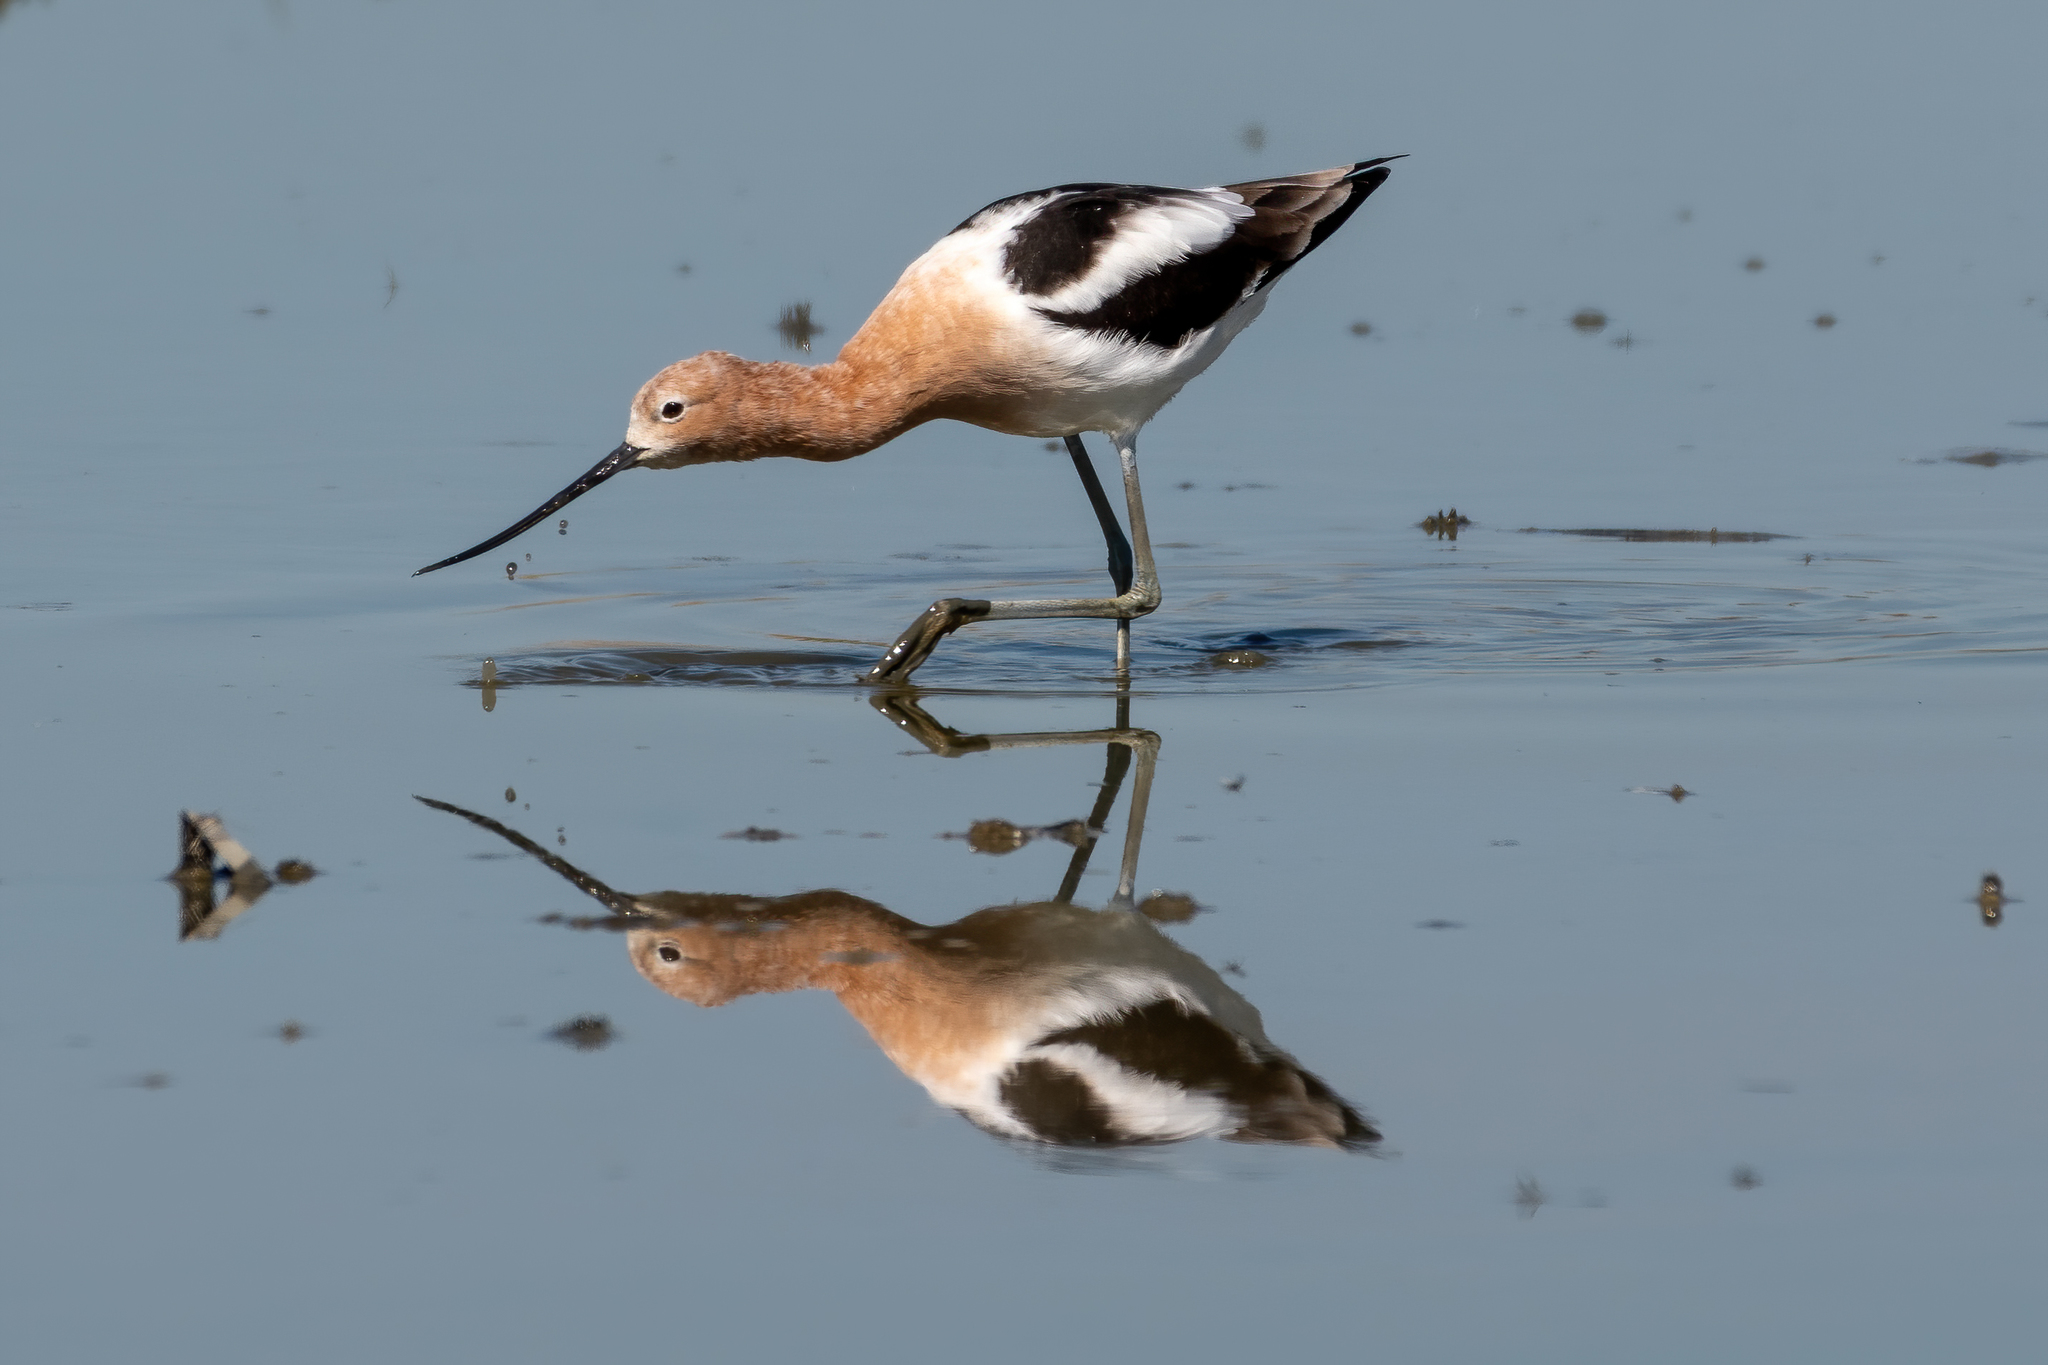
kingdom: Animalia
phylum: Chordata
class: Aves
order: Charadriiformes
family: Recurvirostridae
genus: Recurvirostra
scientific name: Recurvirostra americana
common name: American avocet
